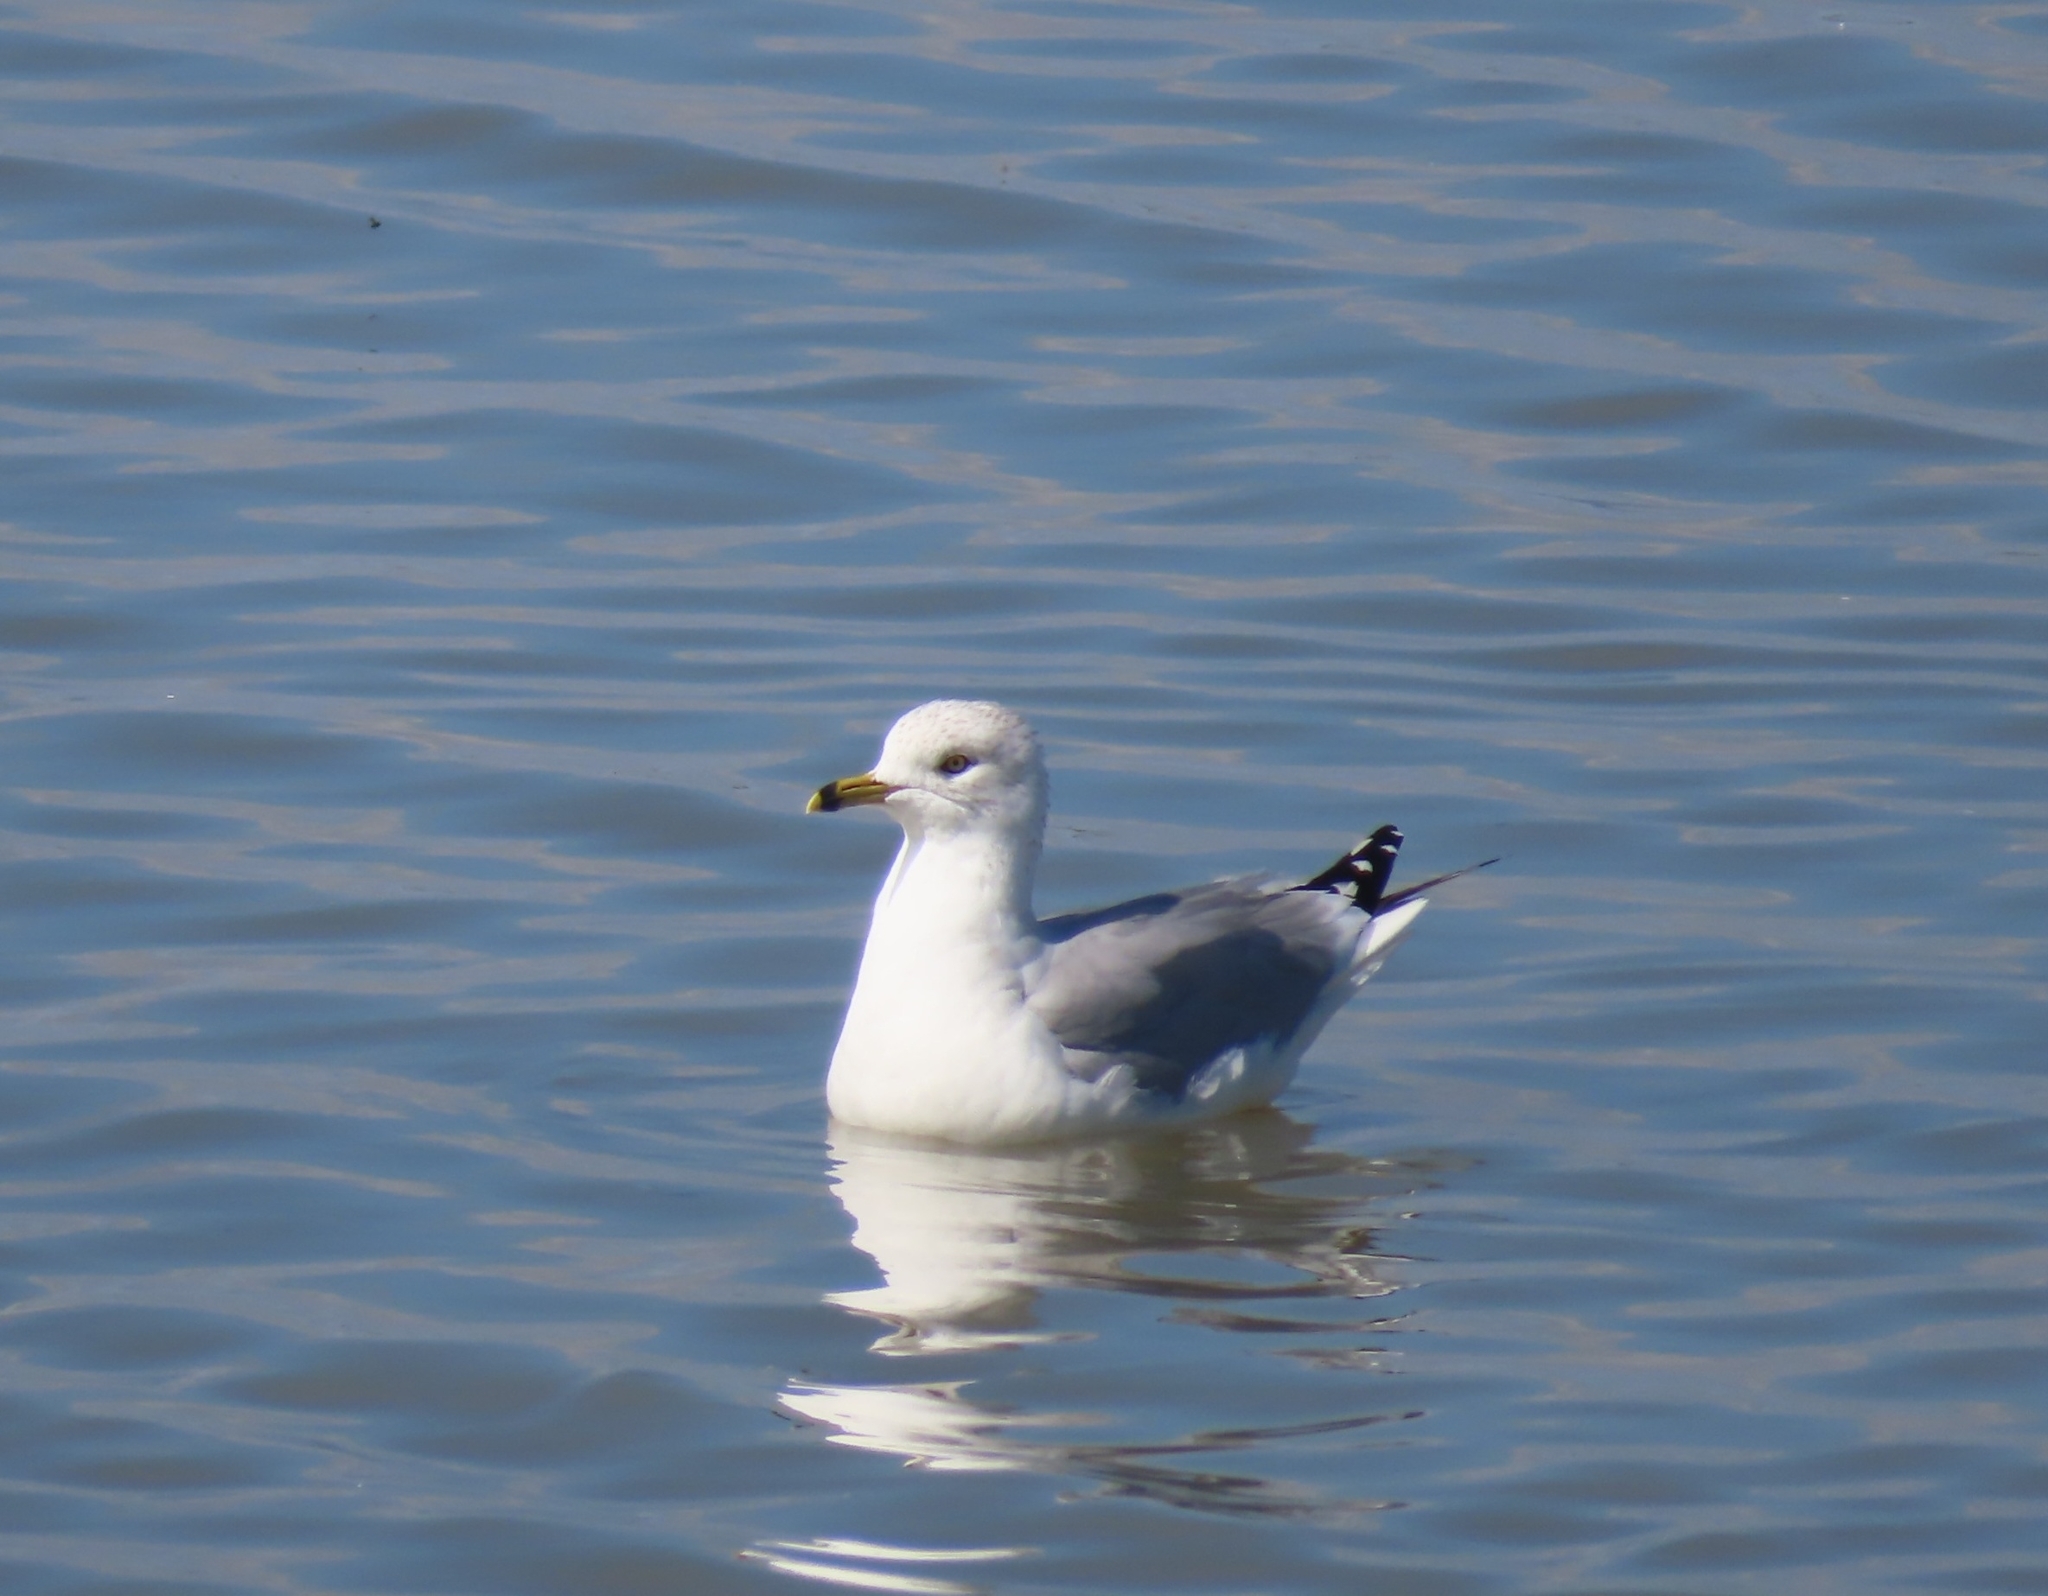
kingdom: Animalia
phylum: Chordata
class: Aves
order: Charadriiformes
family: Laridae
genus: Larus
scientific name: Larus delawarensis
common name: Ring-billed gull
